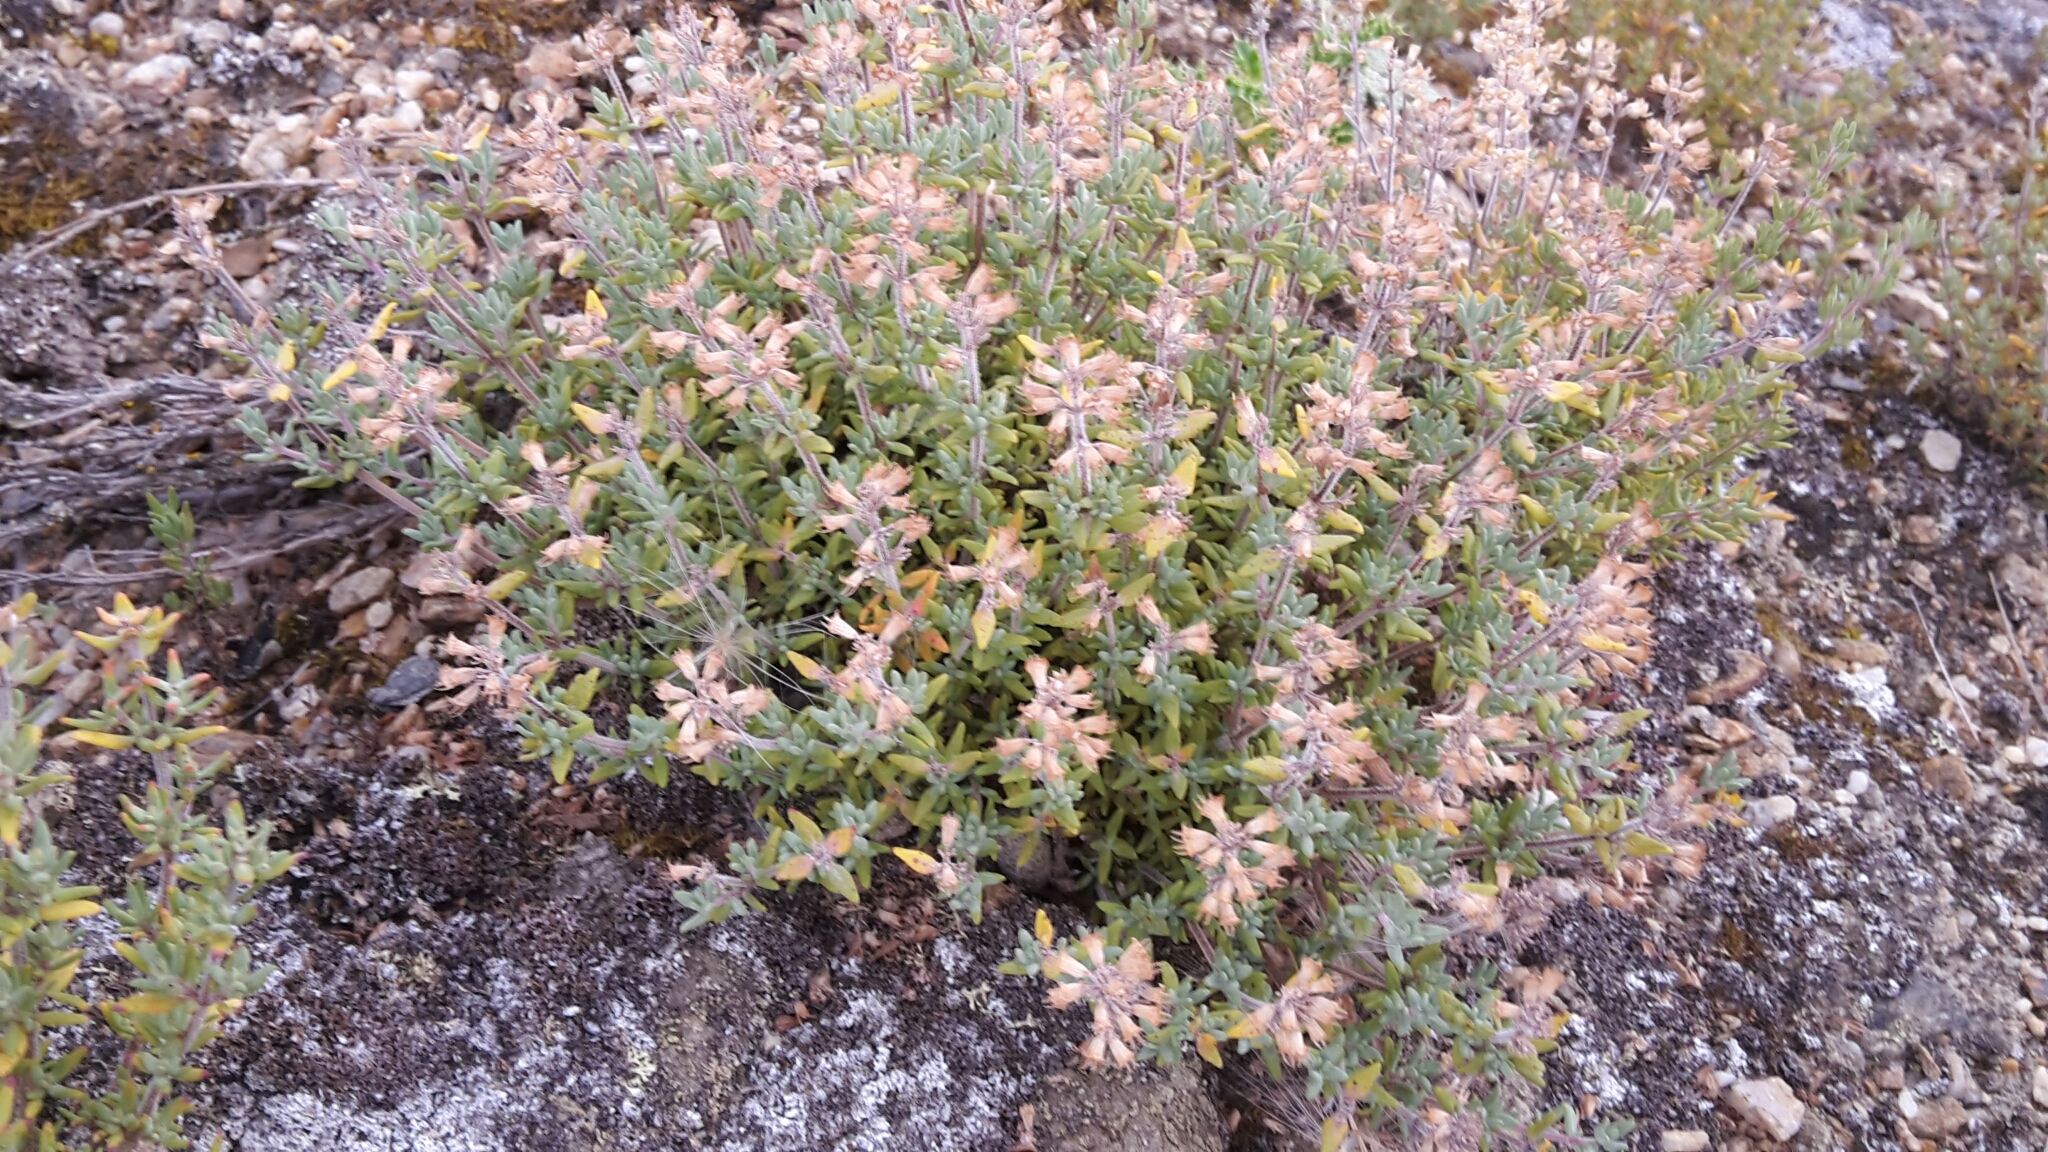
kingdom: Plantae
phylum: Tracheophyta
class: Magnoliopsida
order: Lamiales
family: Lamiaceae
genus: Thymus
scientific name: Thymus vulgaris
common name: Garden thyme
